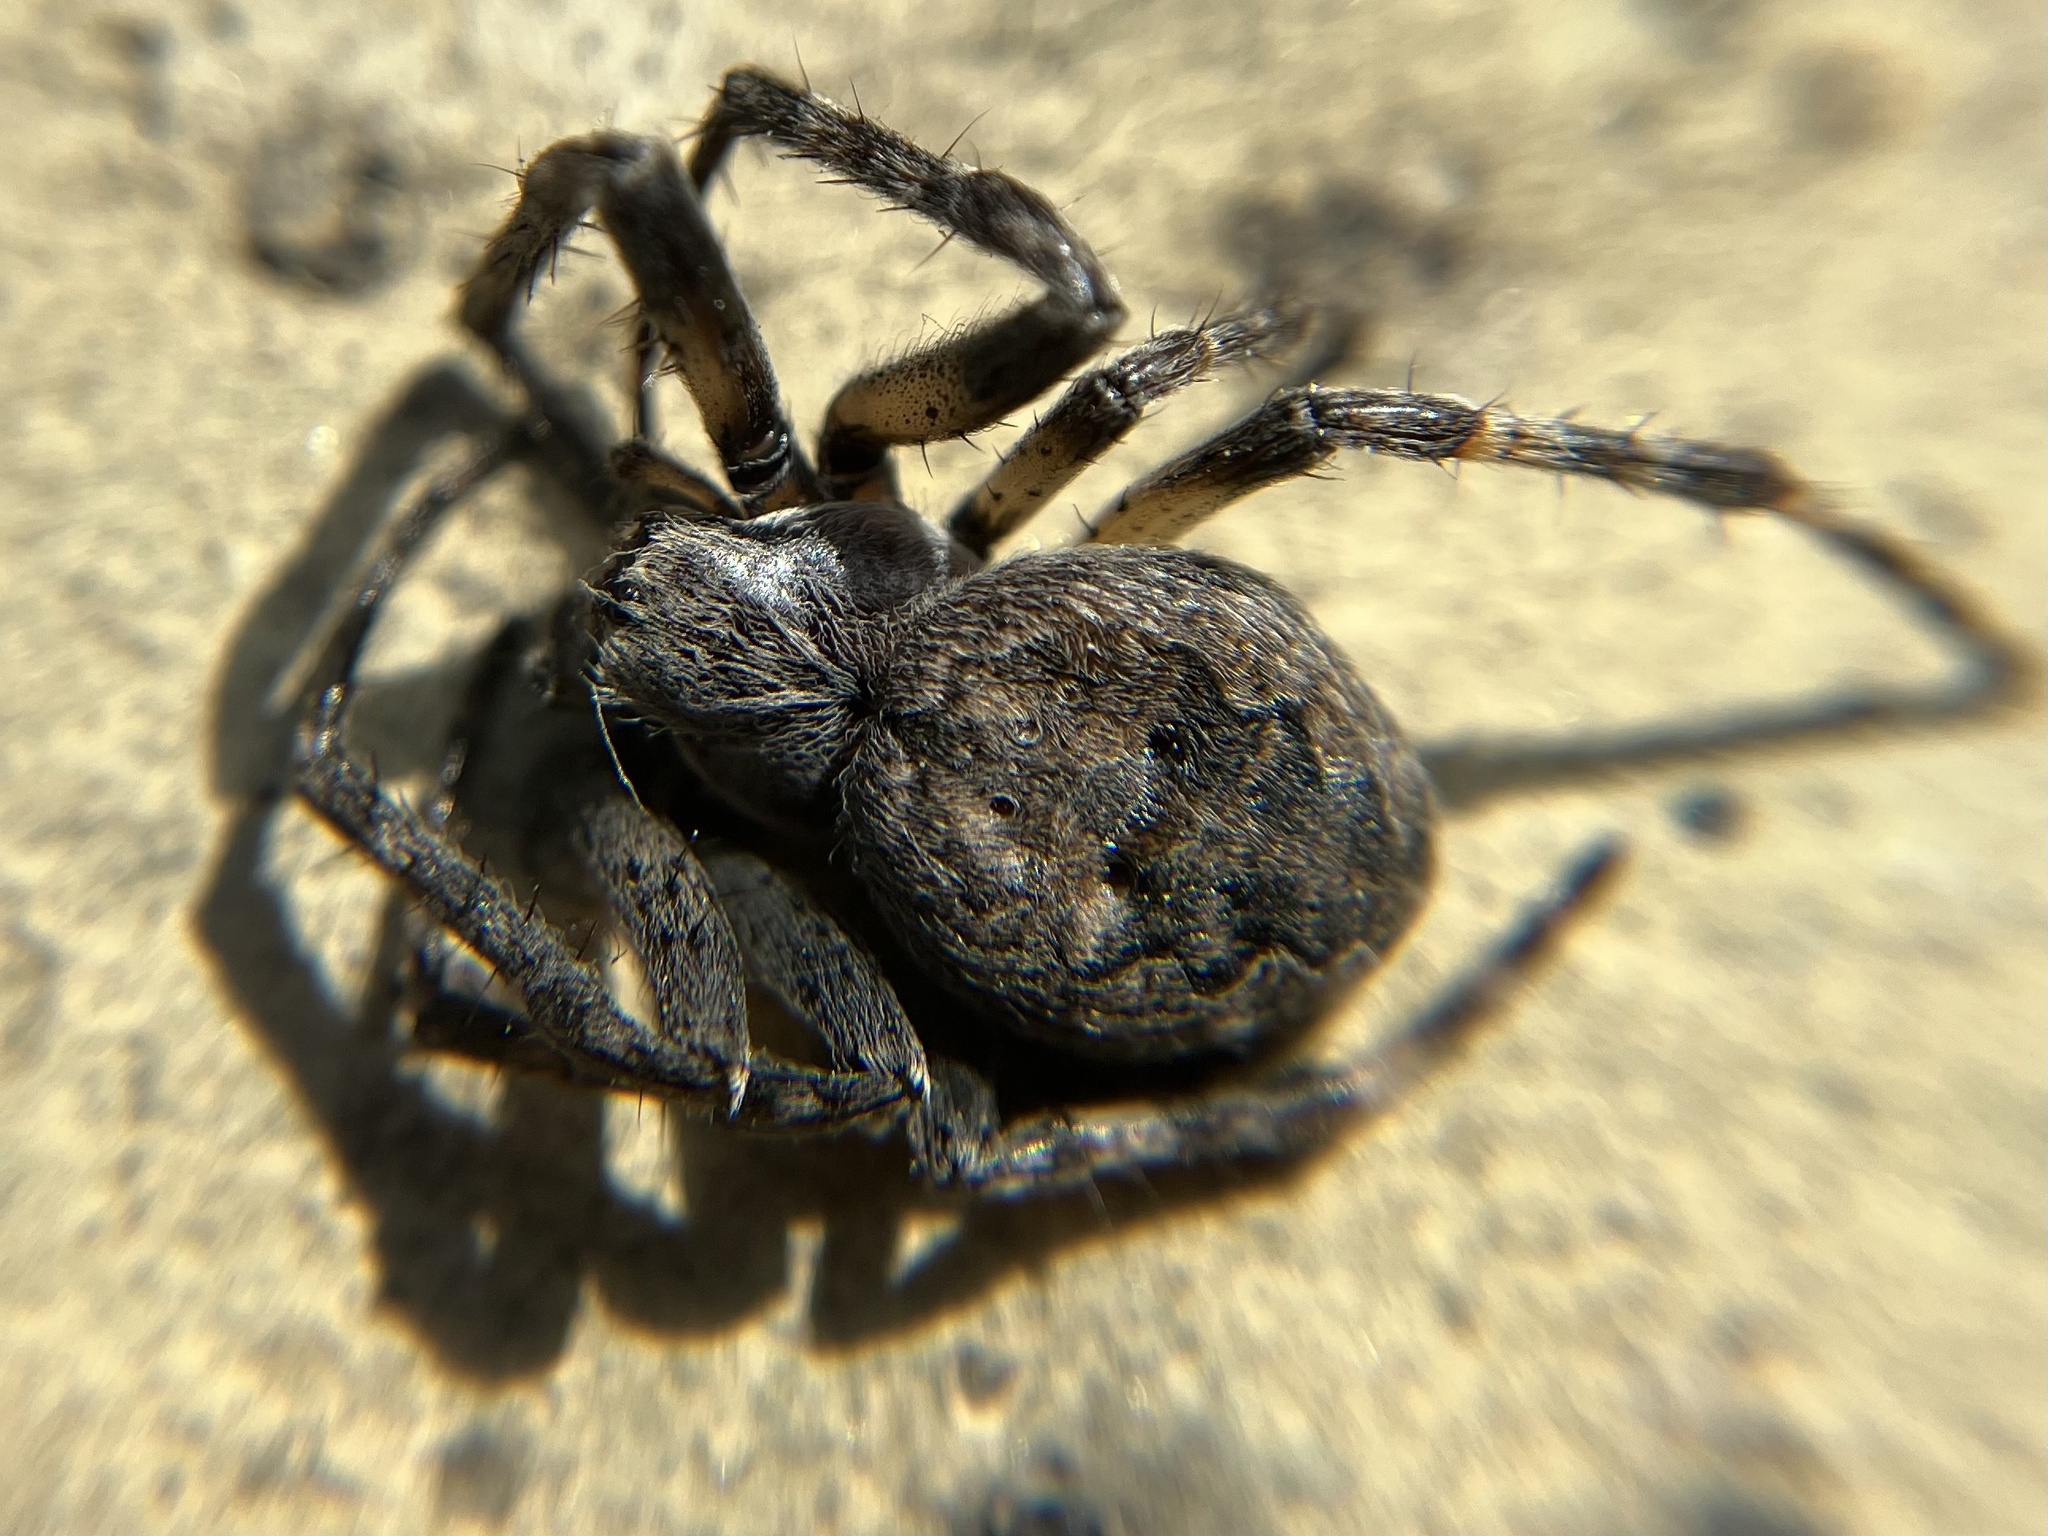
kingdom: Animalia
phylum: Arthropoda
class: Arachnida
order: Araneae
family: Araneidae
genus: Larinioides
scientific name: Larinioides ixobolus
